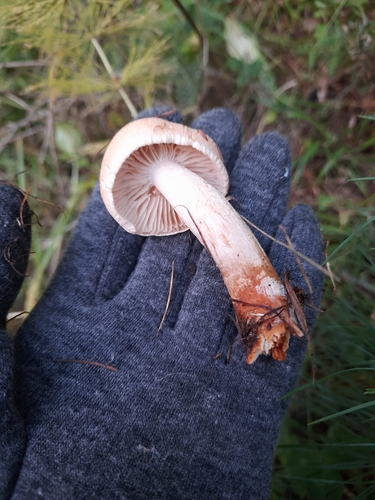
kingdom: Fungi
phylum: Basidiomycota
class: Agaricomycetes
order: Agaricales
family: Hygrophoraceae
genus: Hygrophorus
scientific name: Hygrophorus erubescens
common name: Blotched woodwax
